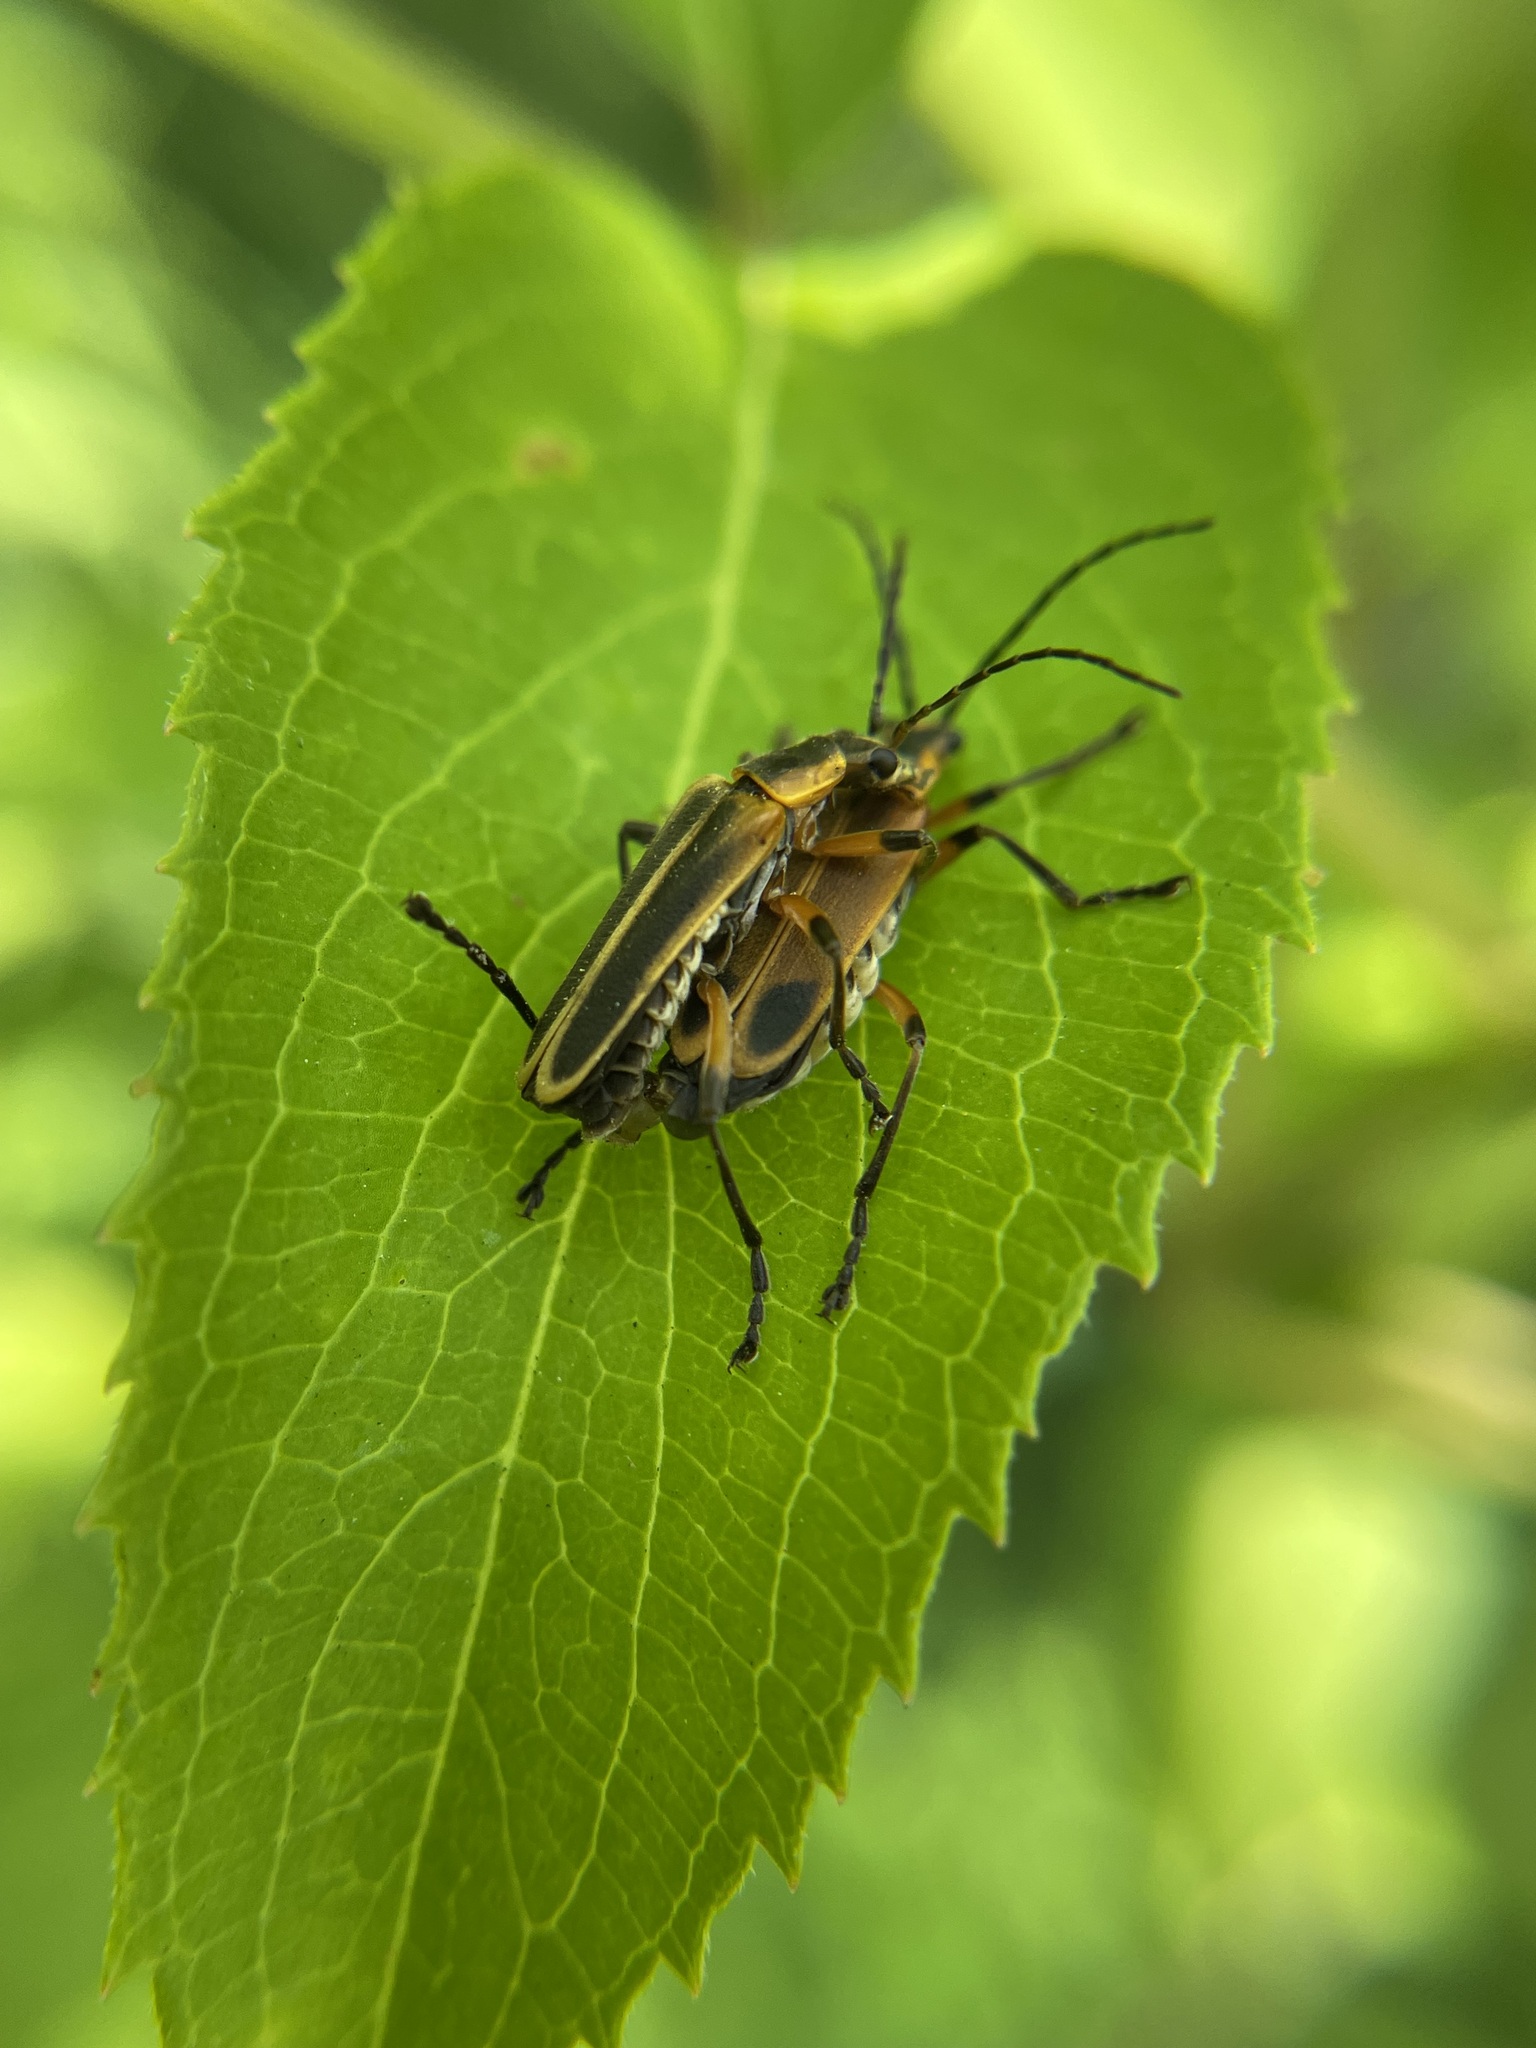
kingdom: Animalia
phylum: Arthropoda
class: Insecta
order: Coleoptera
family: Cantharidae
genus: Chauliognathus
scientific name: Chauliognathus marginatus
